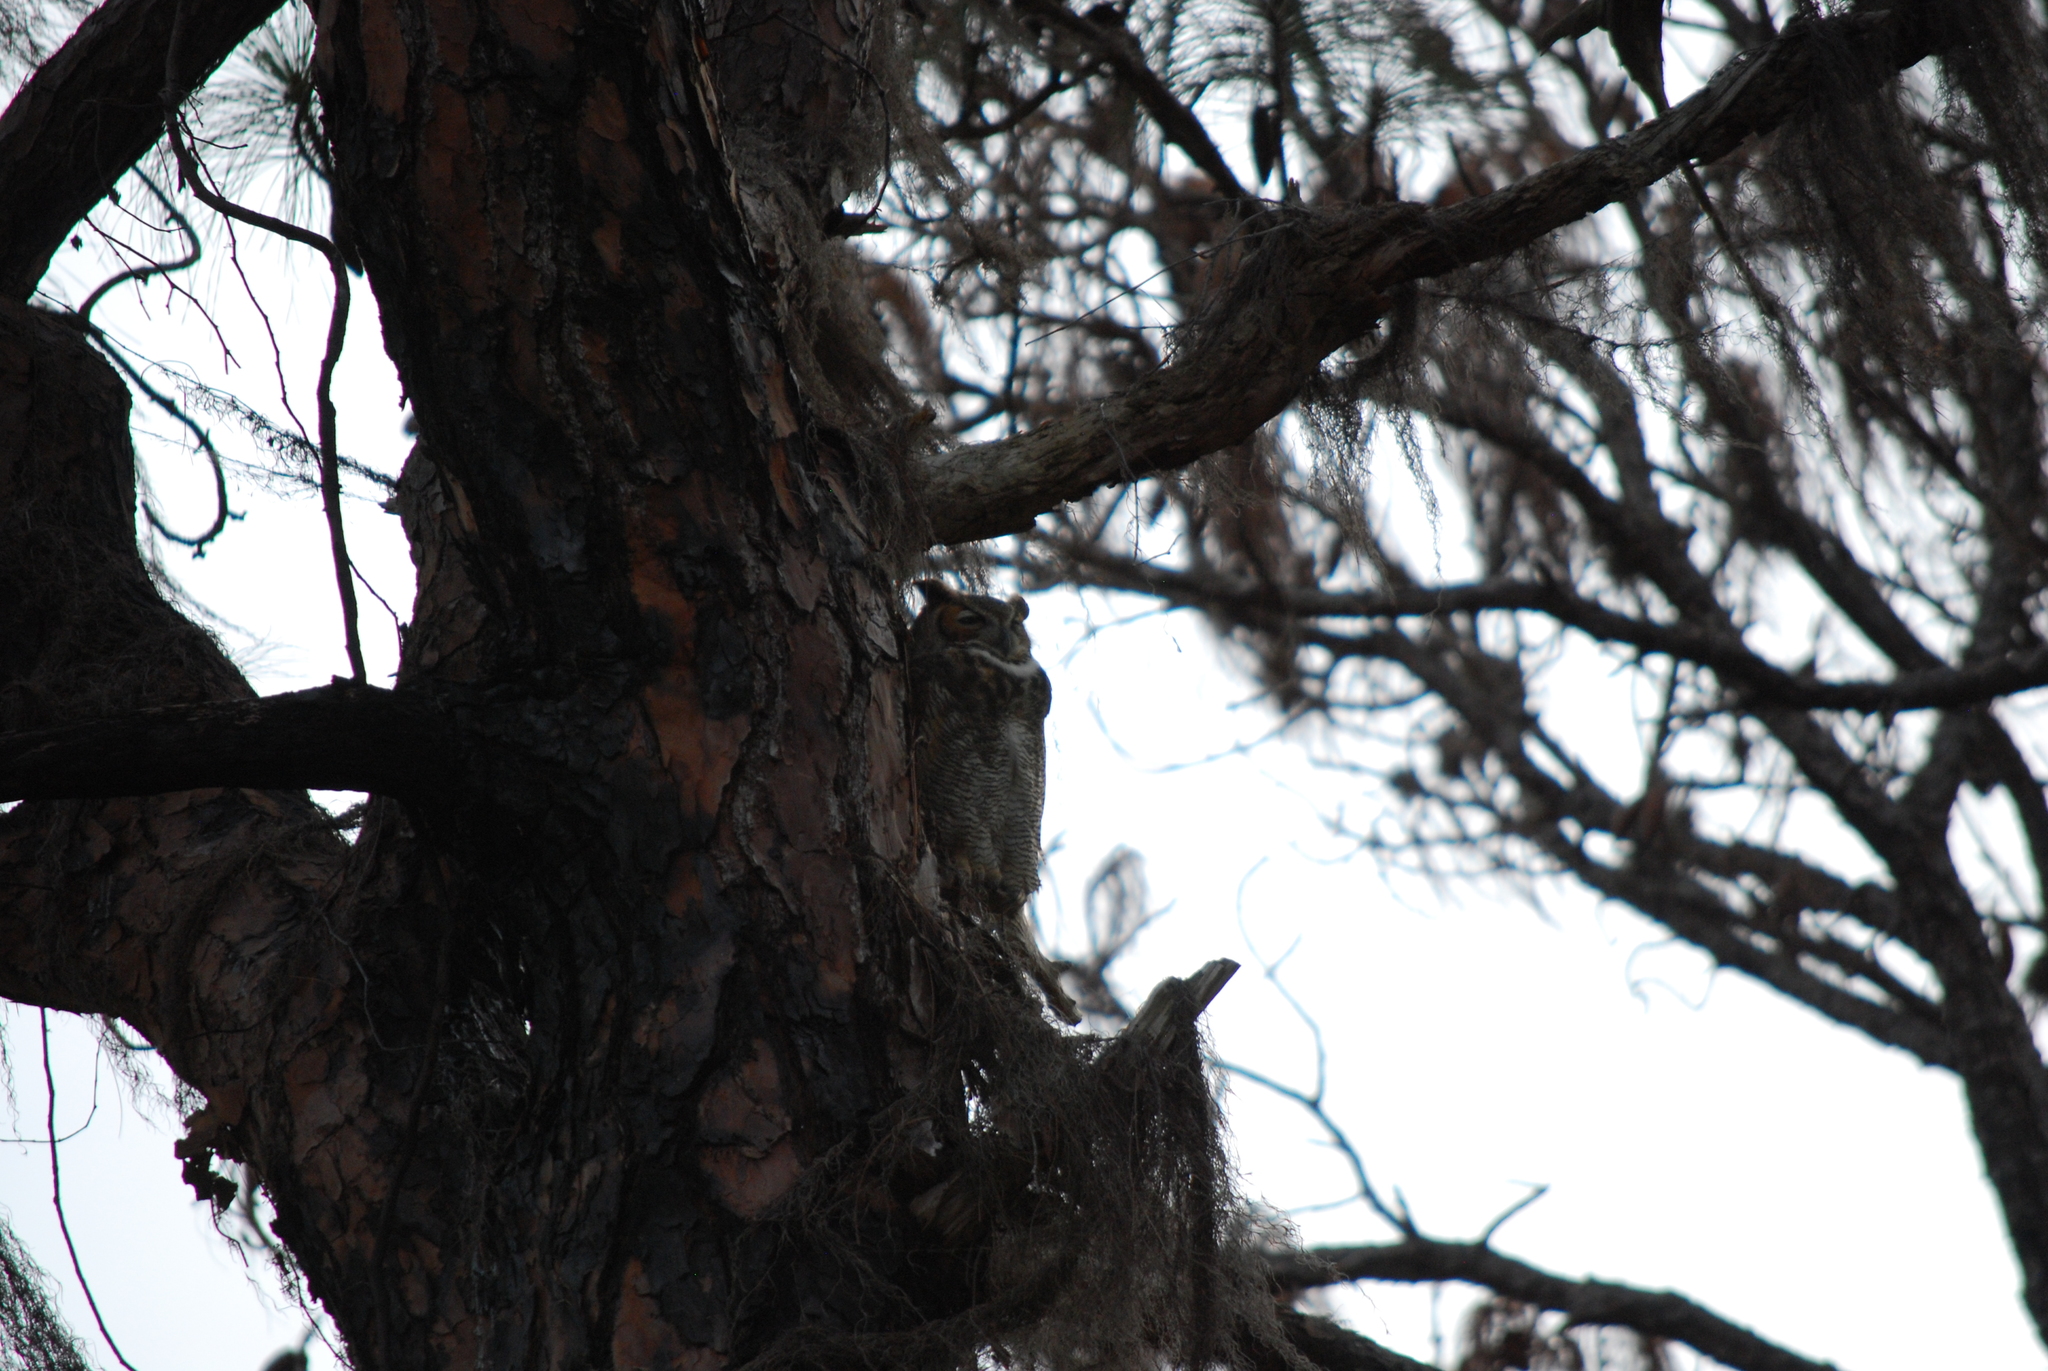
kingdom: Animalia
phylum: Chordata
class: Aves
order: Strigiformes
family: Strigidae
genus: Bubo
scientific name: Bubo virginianus
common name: Great horned owl
